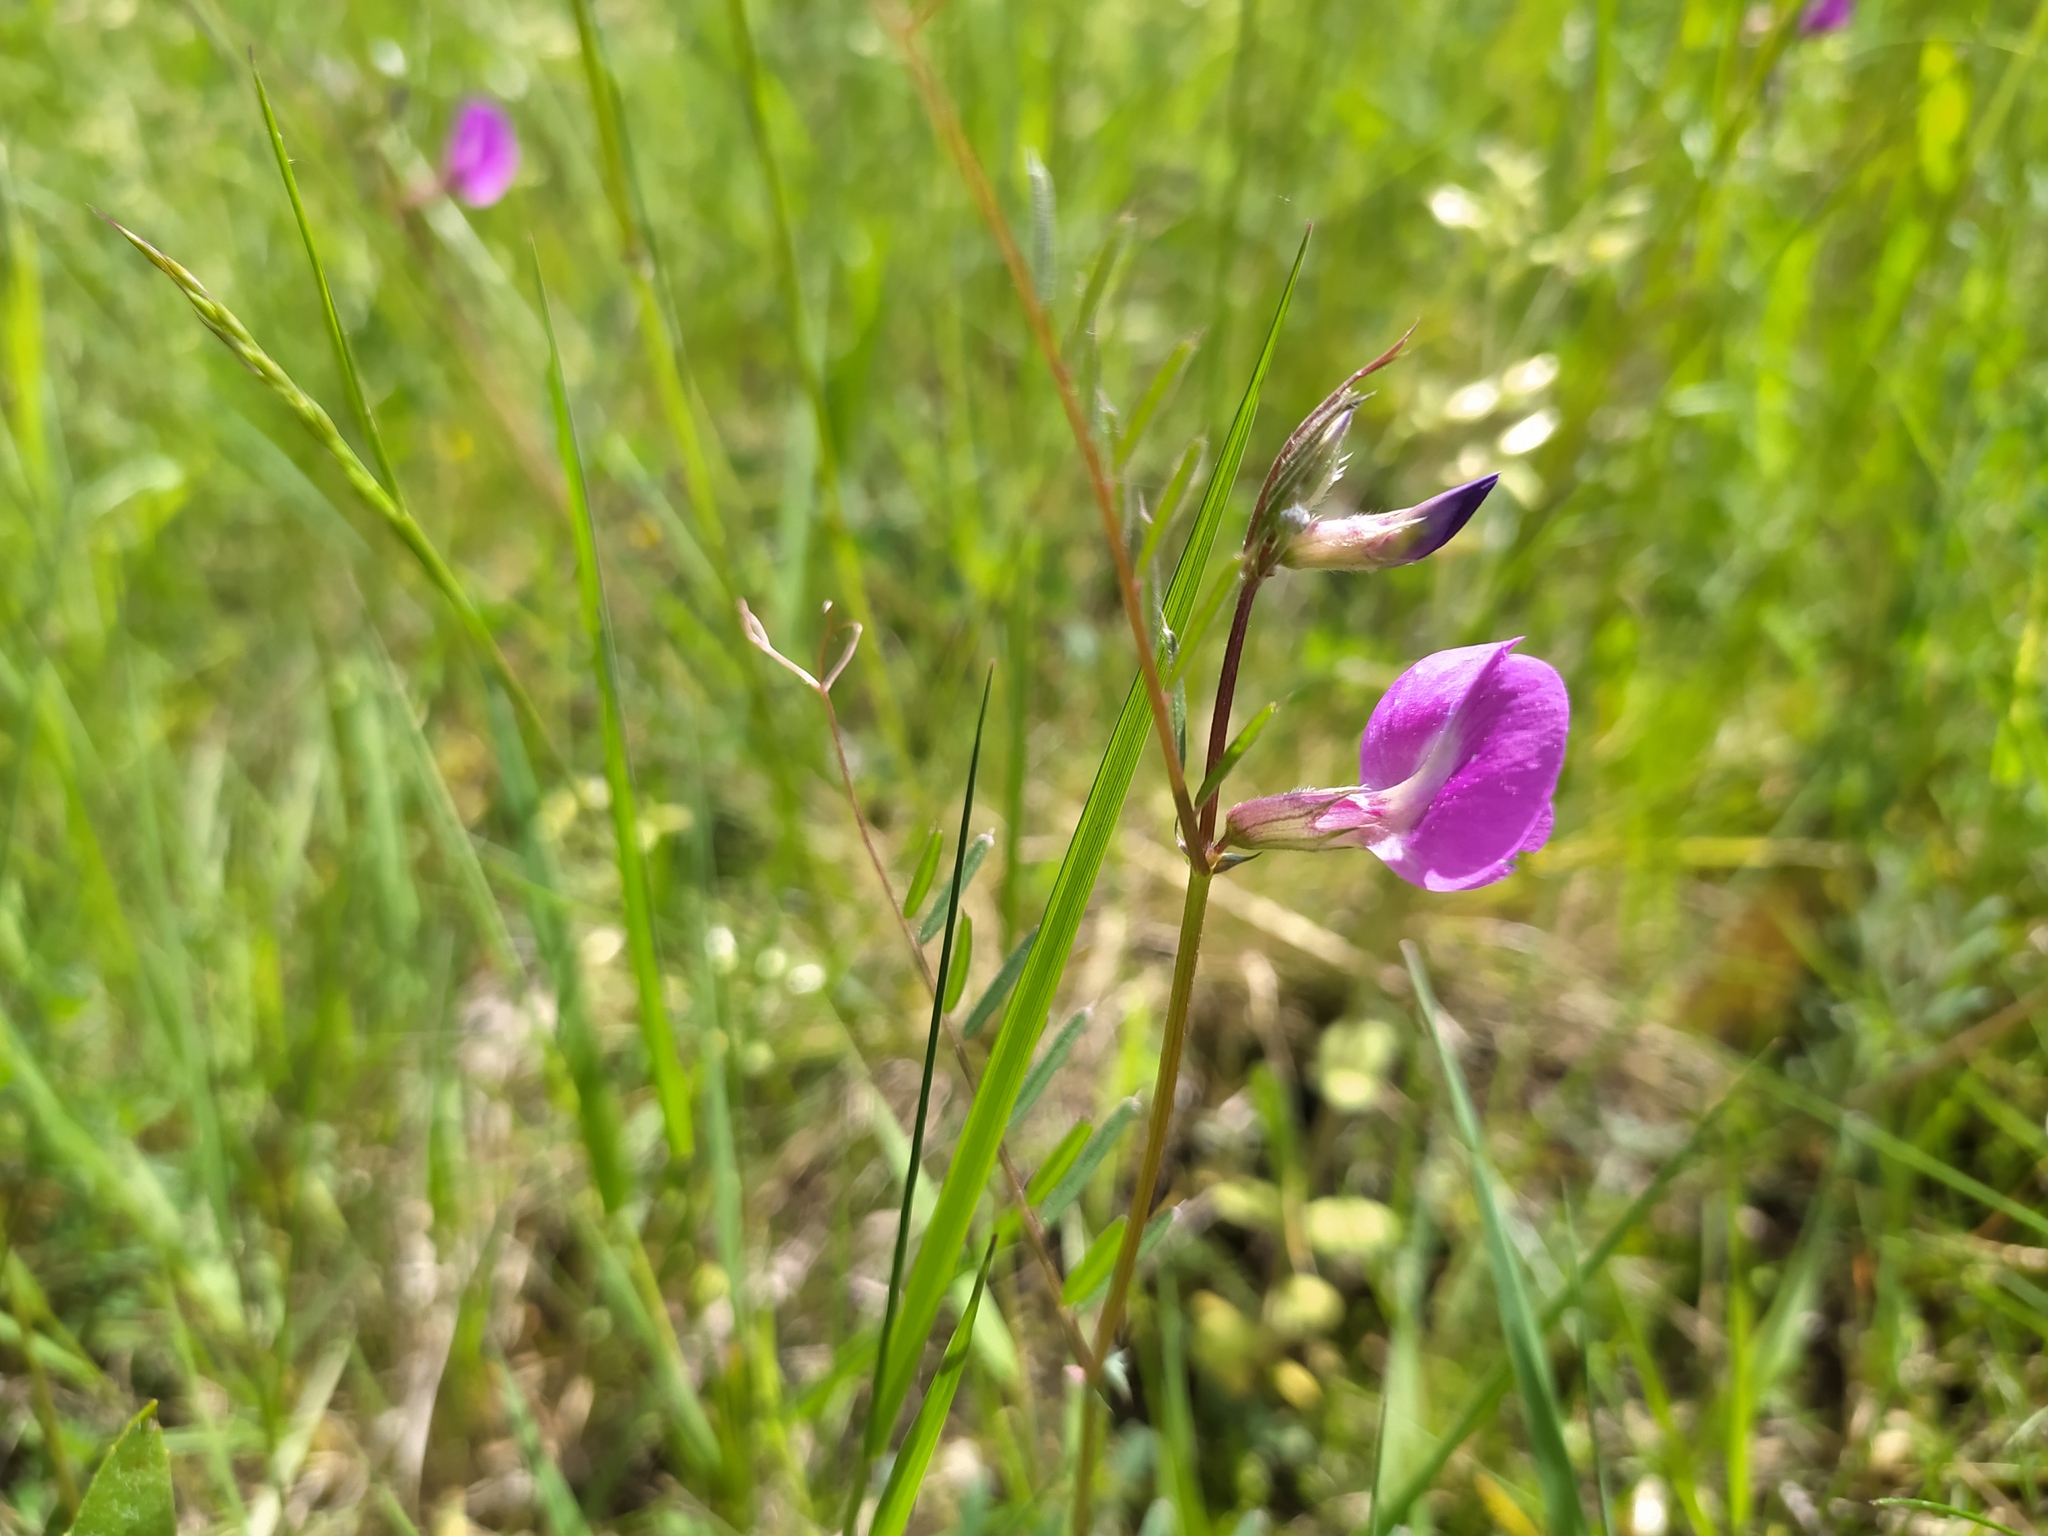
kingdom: Plantae
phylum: Tracheophyta
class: Magnoliopsida
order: Fabales
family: Fabaceae
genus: Vicia
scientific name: Vicia sativa
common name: Garden vetch
